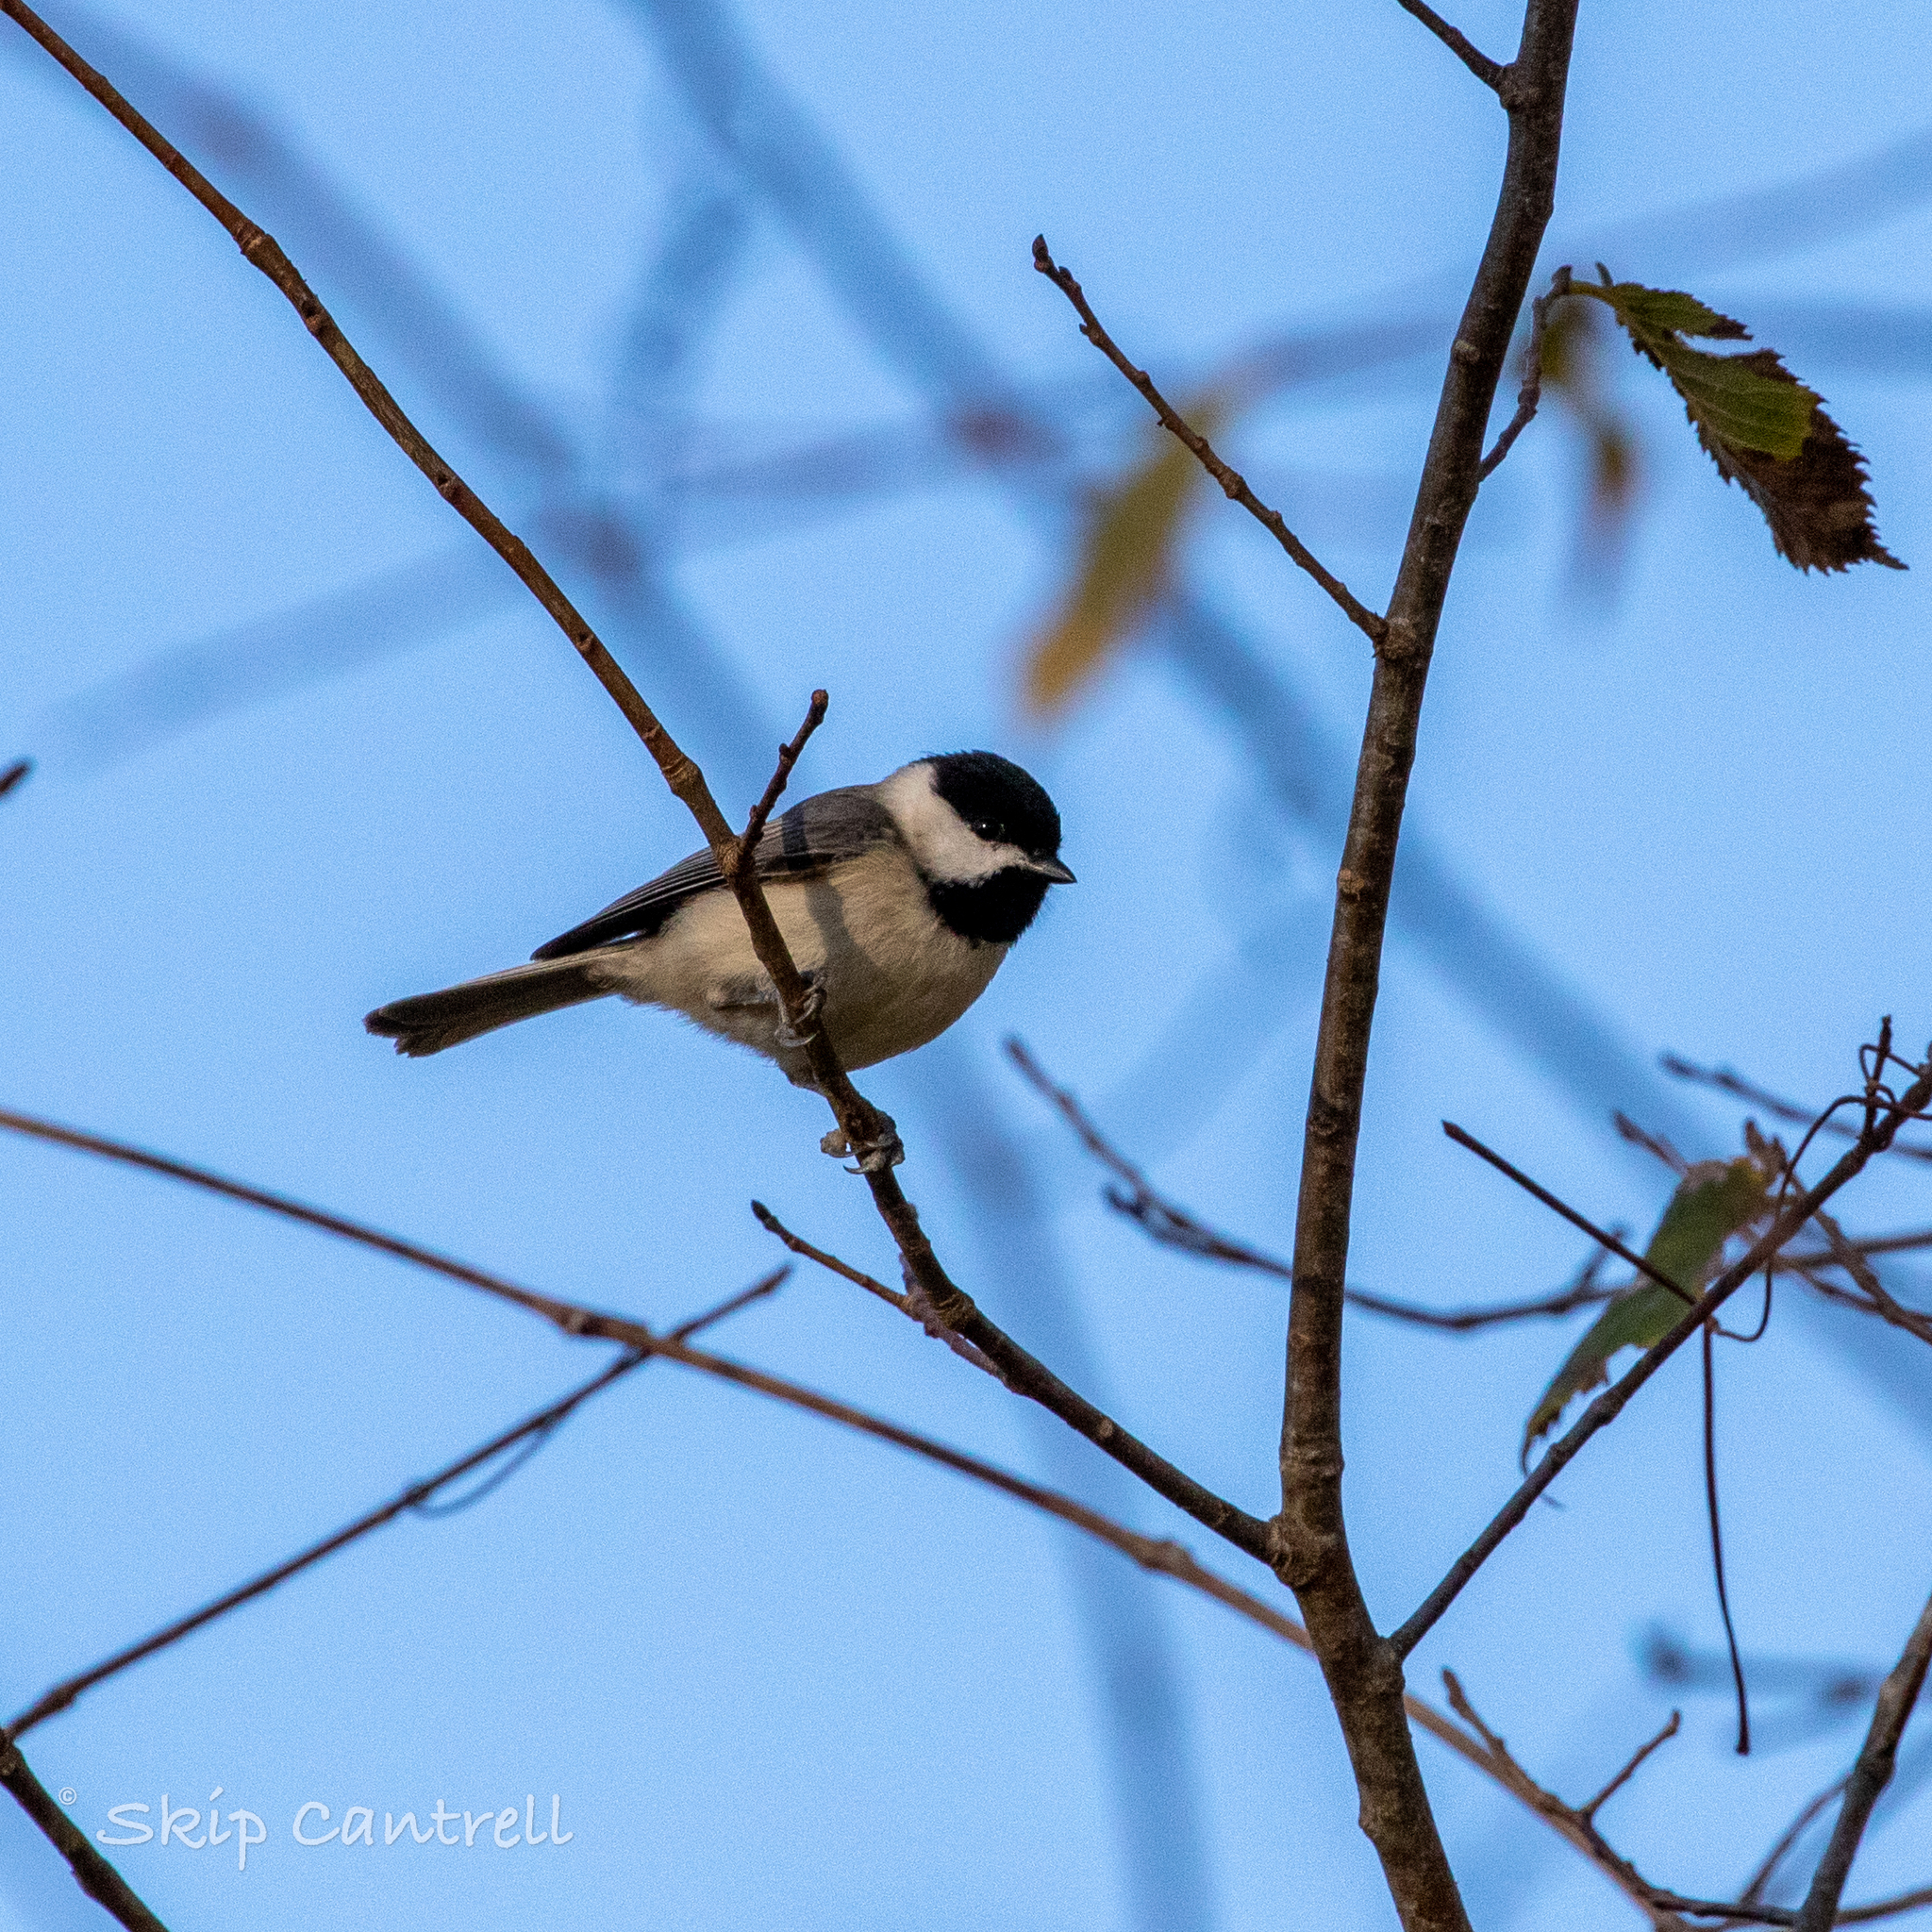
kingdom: Animalia
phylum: Chordata
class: Aves
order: Passeriformes
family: Paridae
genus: Poecile
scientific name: Poecile carolinensis
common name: Carolina chickadee
